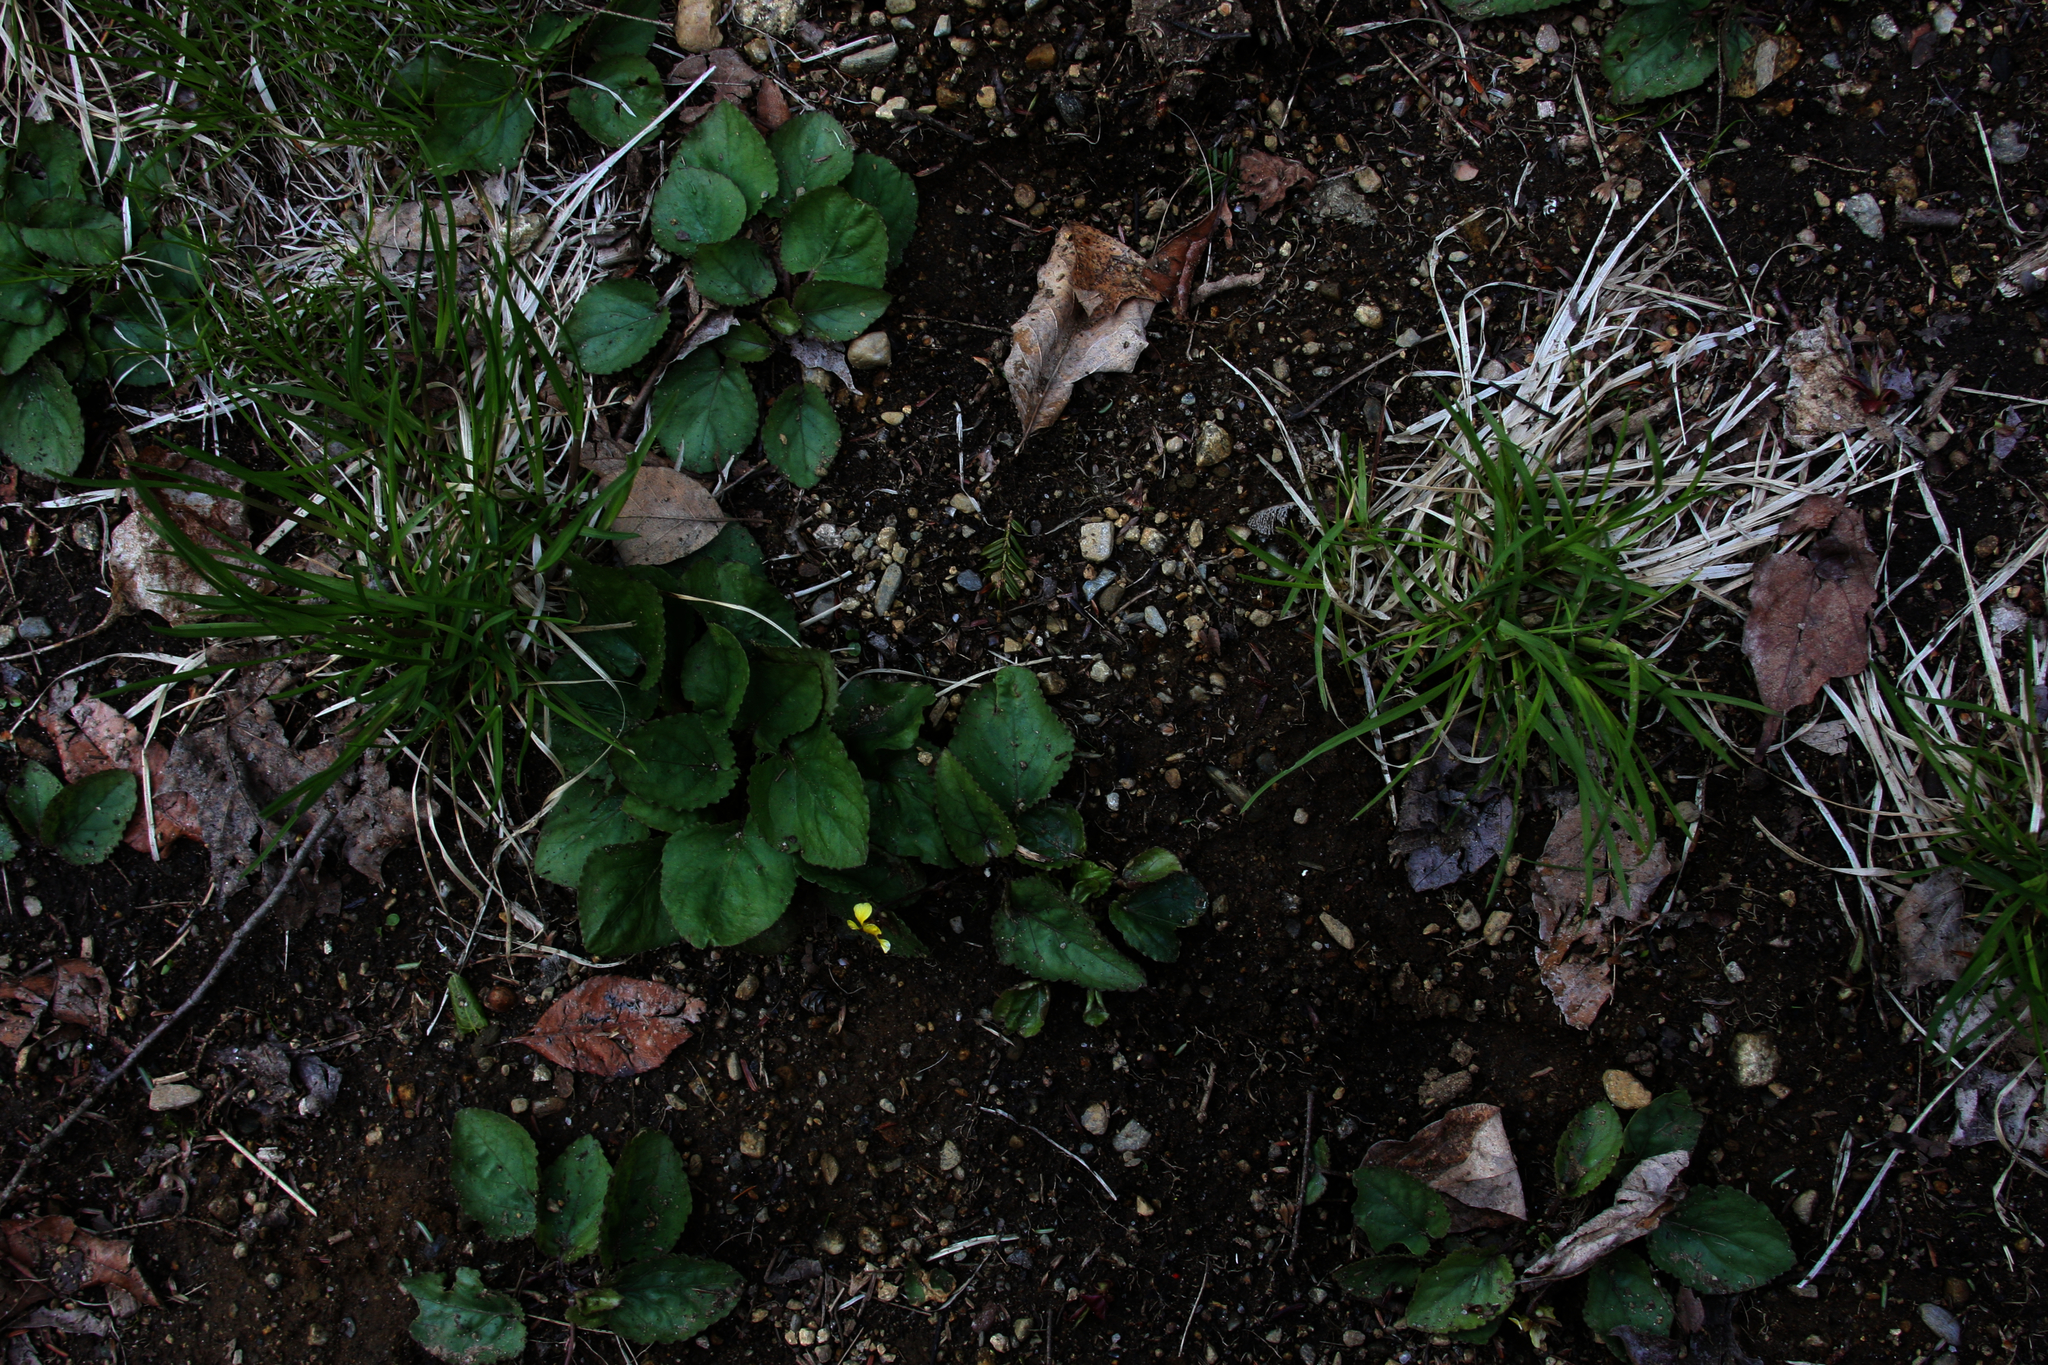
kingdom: Plantae
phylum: Tracheophyta
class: Magnoliopsida
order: Malpighiales
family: Violaceae
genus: Viola
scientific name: Viola rotundifolia
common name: Early yellow violet
